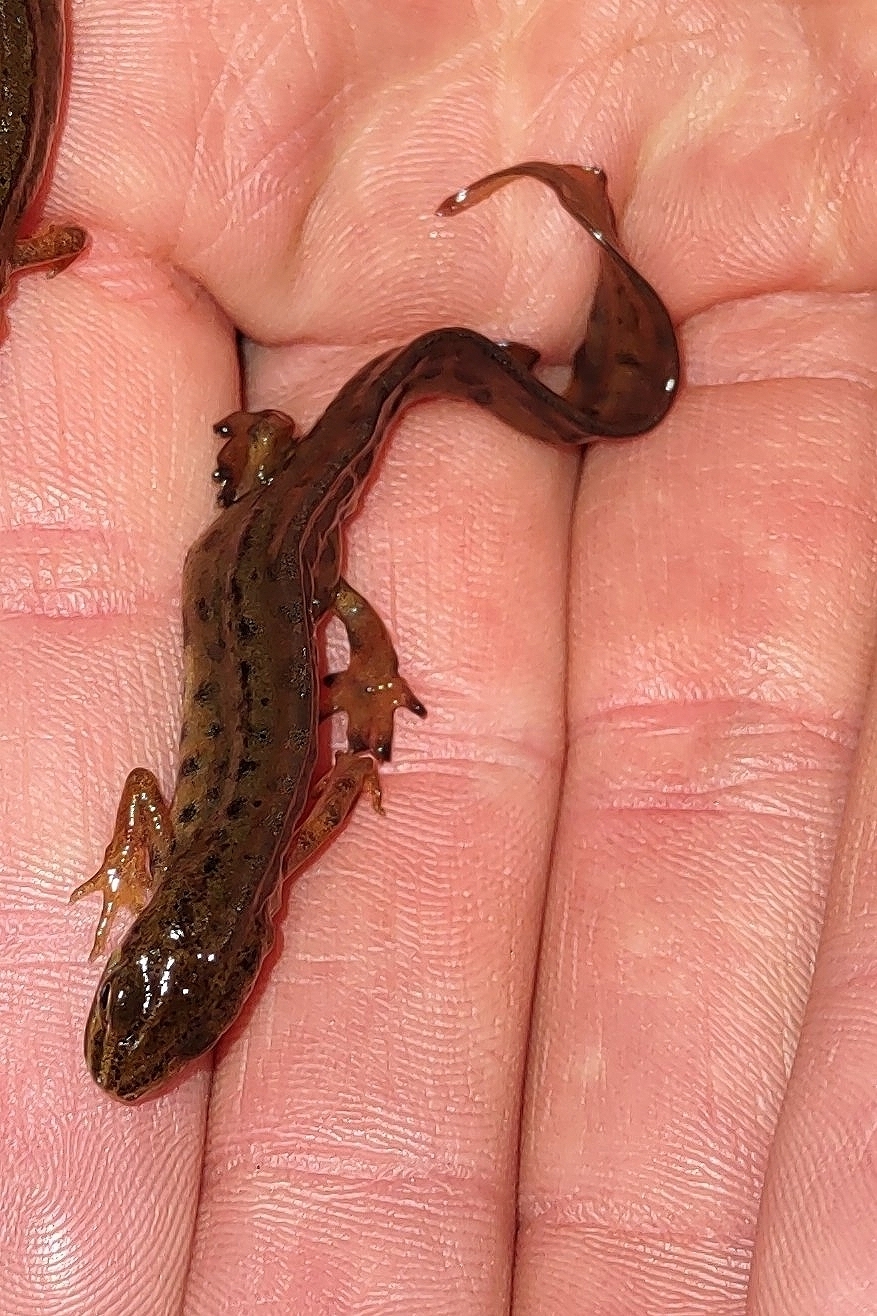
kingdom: Animalia
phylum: Chordata
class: Amphibia
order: Caudata
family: Salamandridae
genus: Lissotriton
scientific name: Lissotriton vulgaris
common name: Smooth newt
